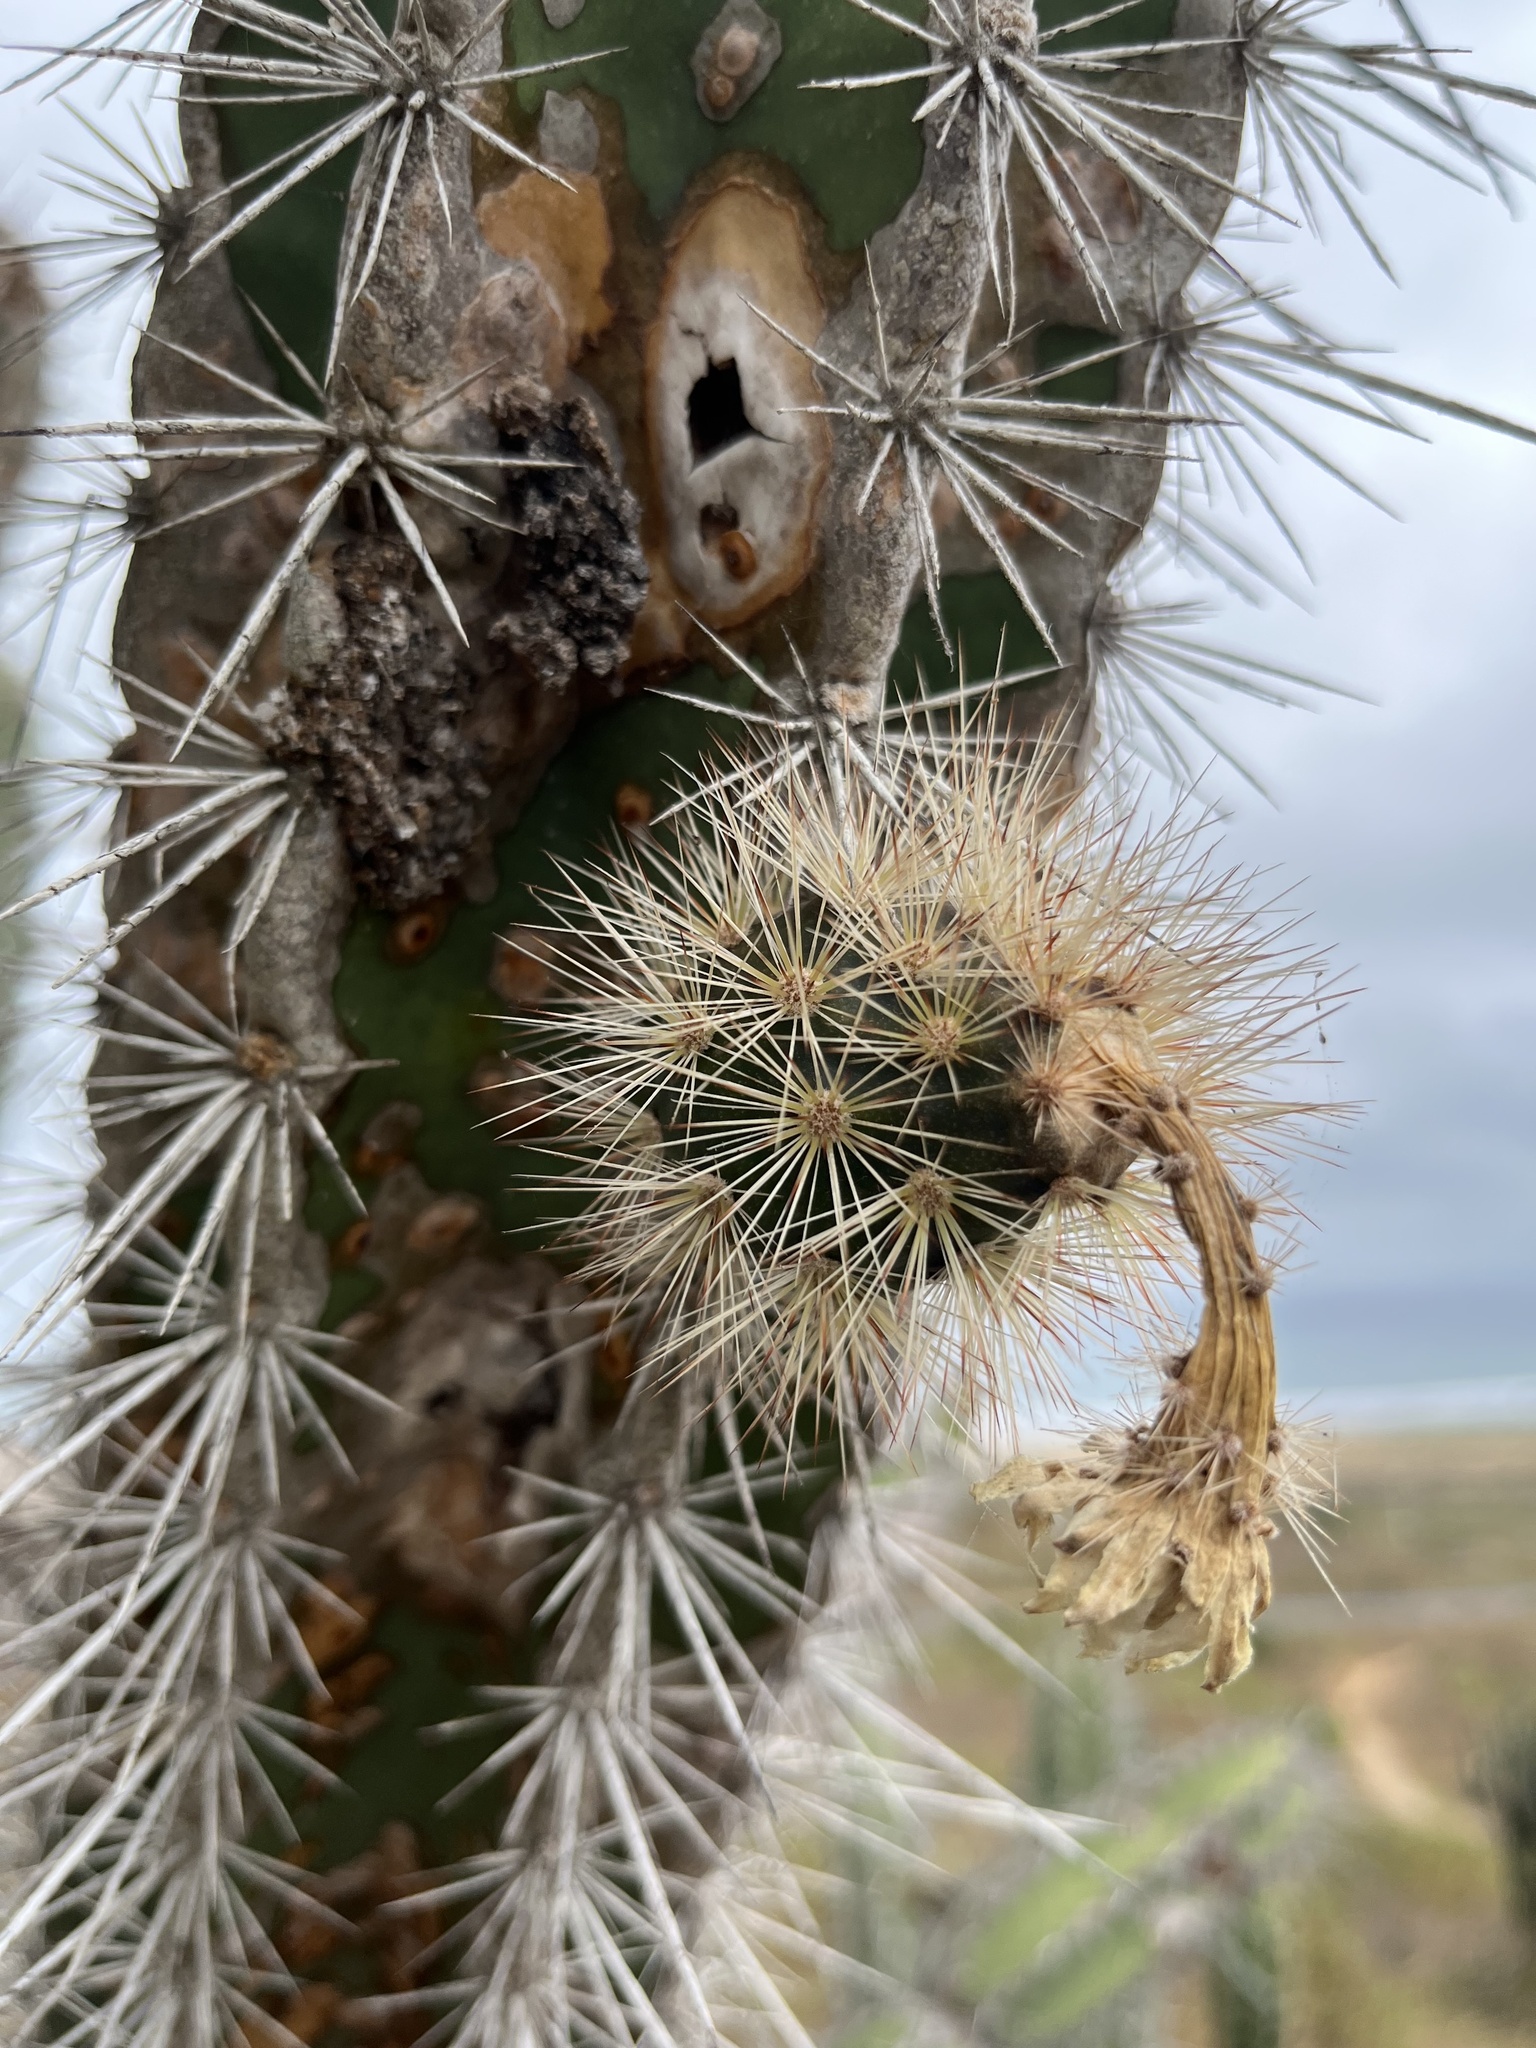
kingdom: Plantae
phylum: Tracheophyta
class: Magnoliopsida
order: Caryophyllales
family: Cactaceae
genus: Armatocereus
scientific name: Armatocereus cartwrightianus
